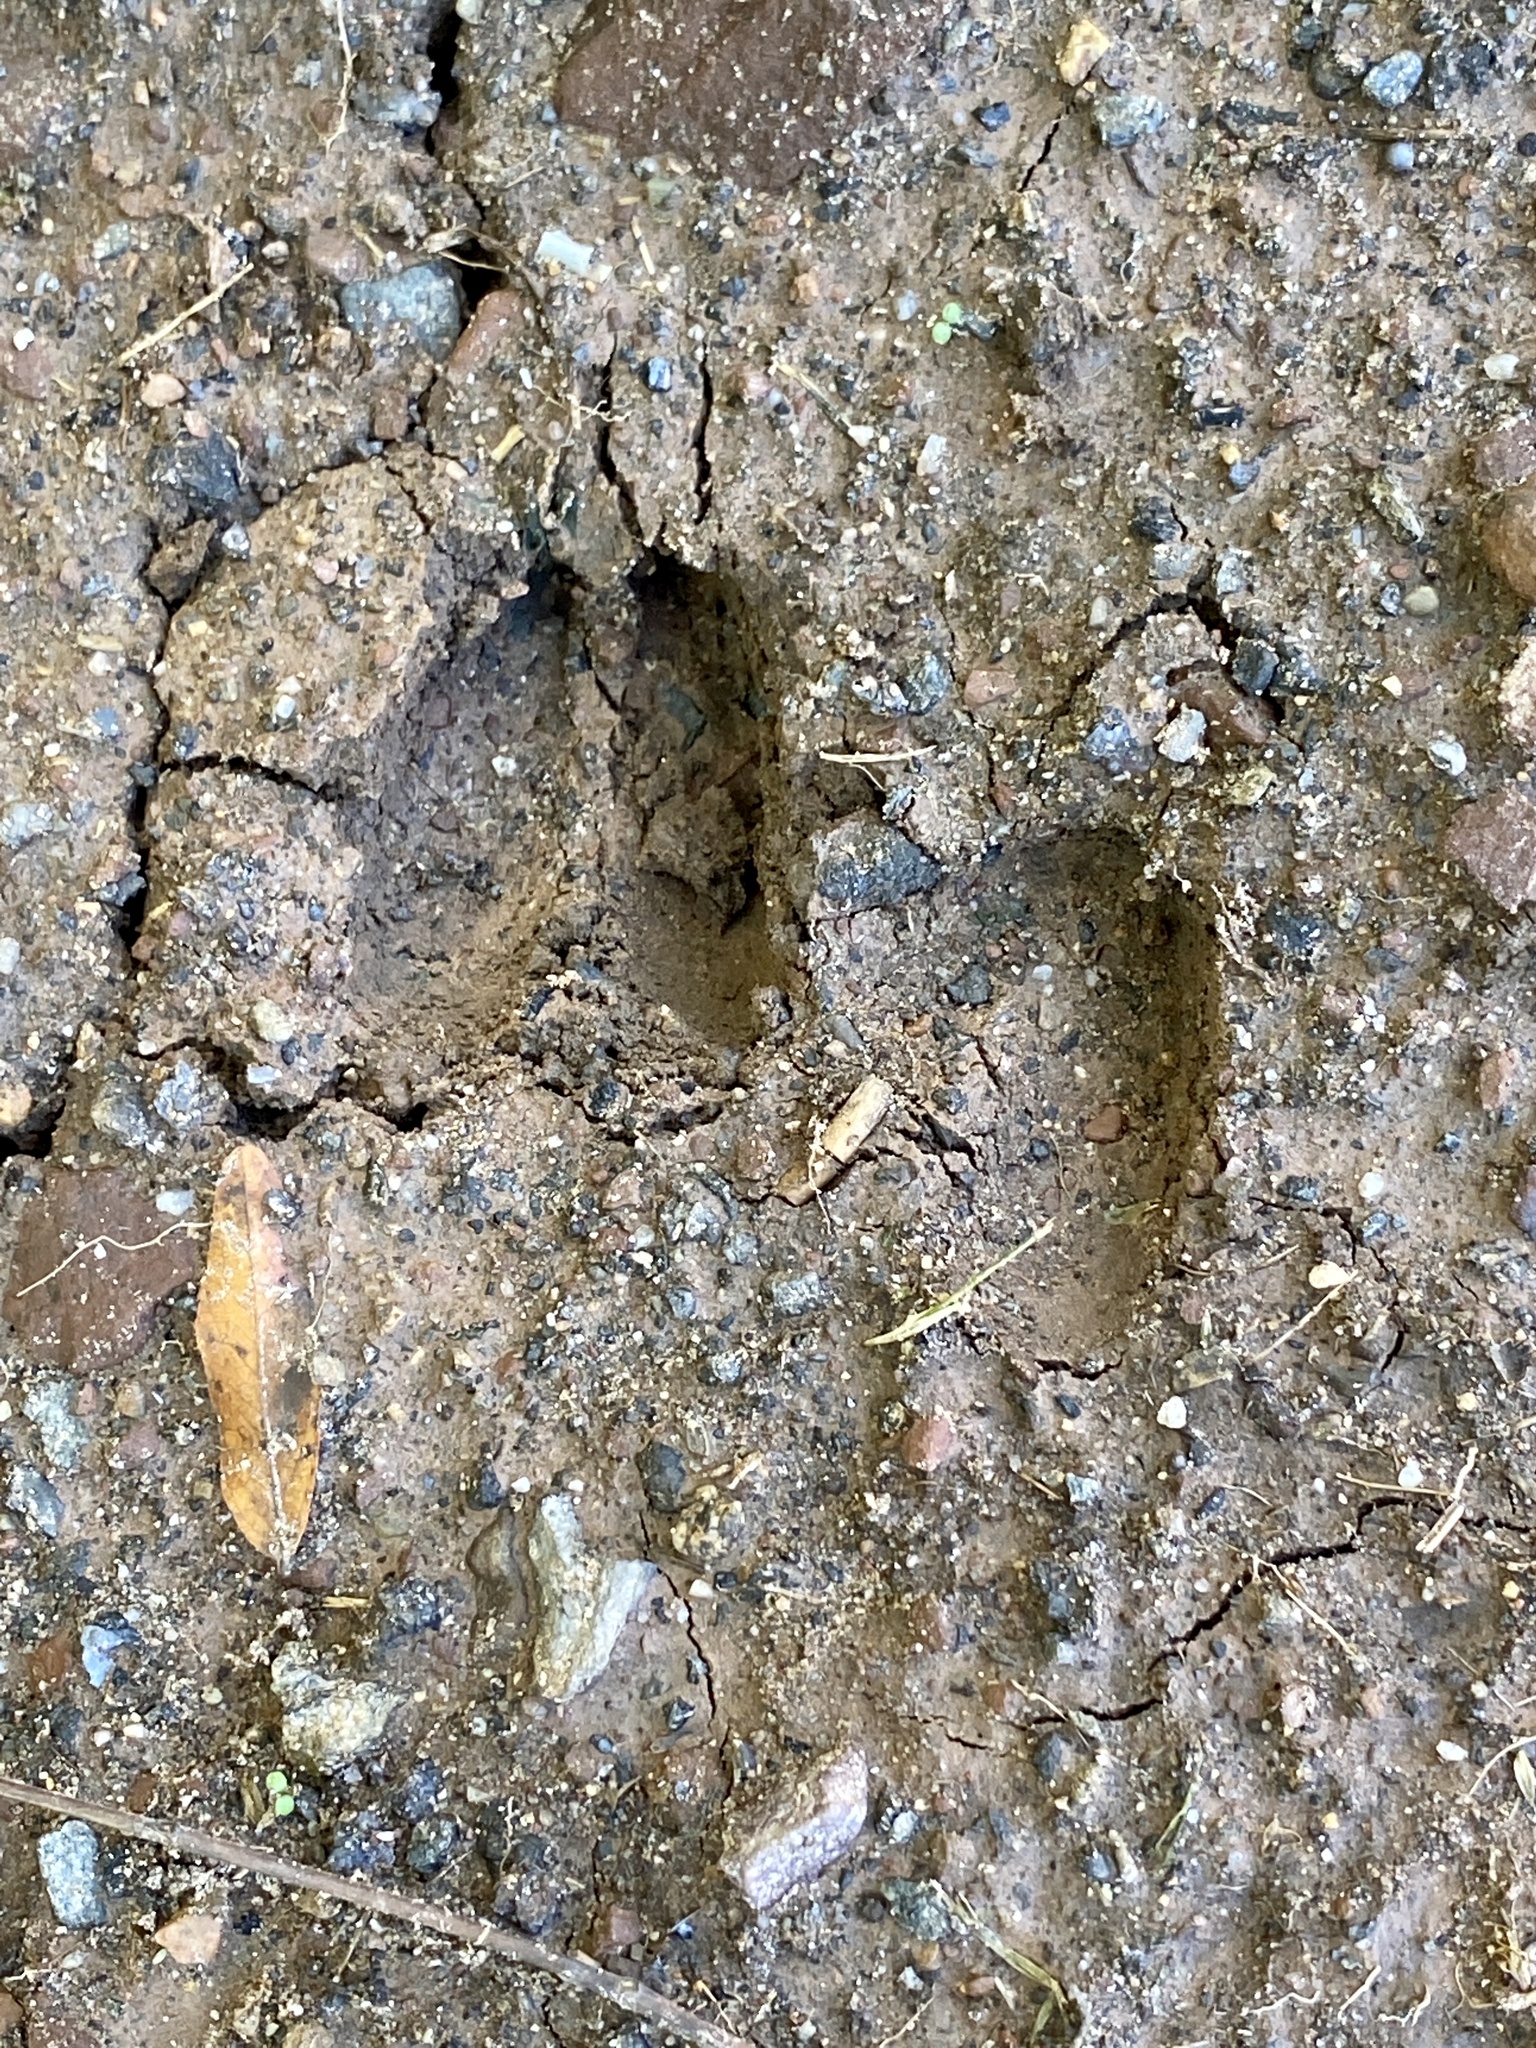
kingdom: Animalia
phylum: Chordata
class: Mammalia
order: Artiodactyla
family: Cervidae
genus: Odocoileus
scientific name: Odocoileus virginianus
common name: White-tailed deer
